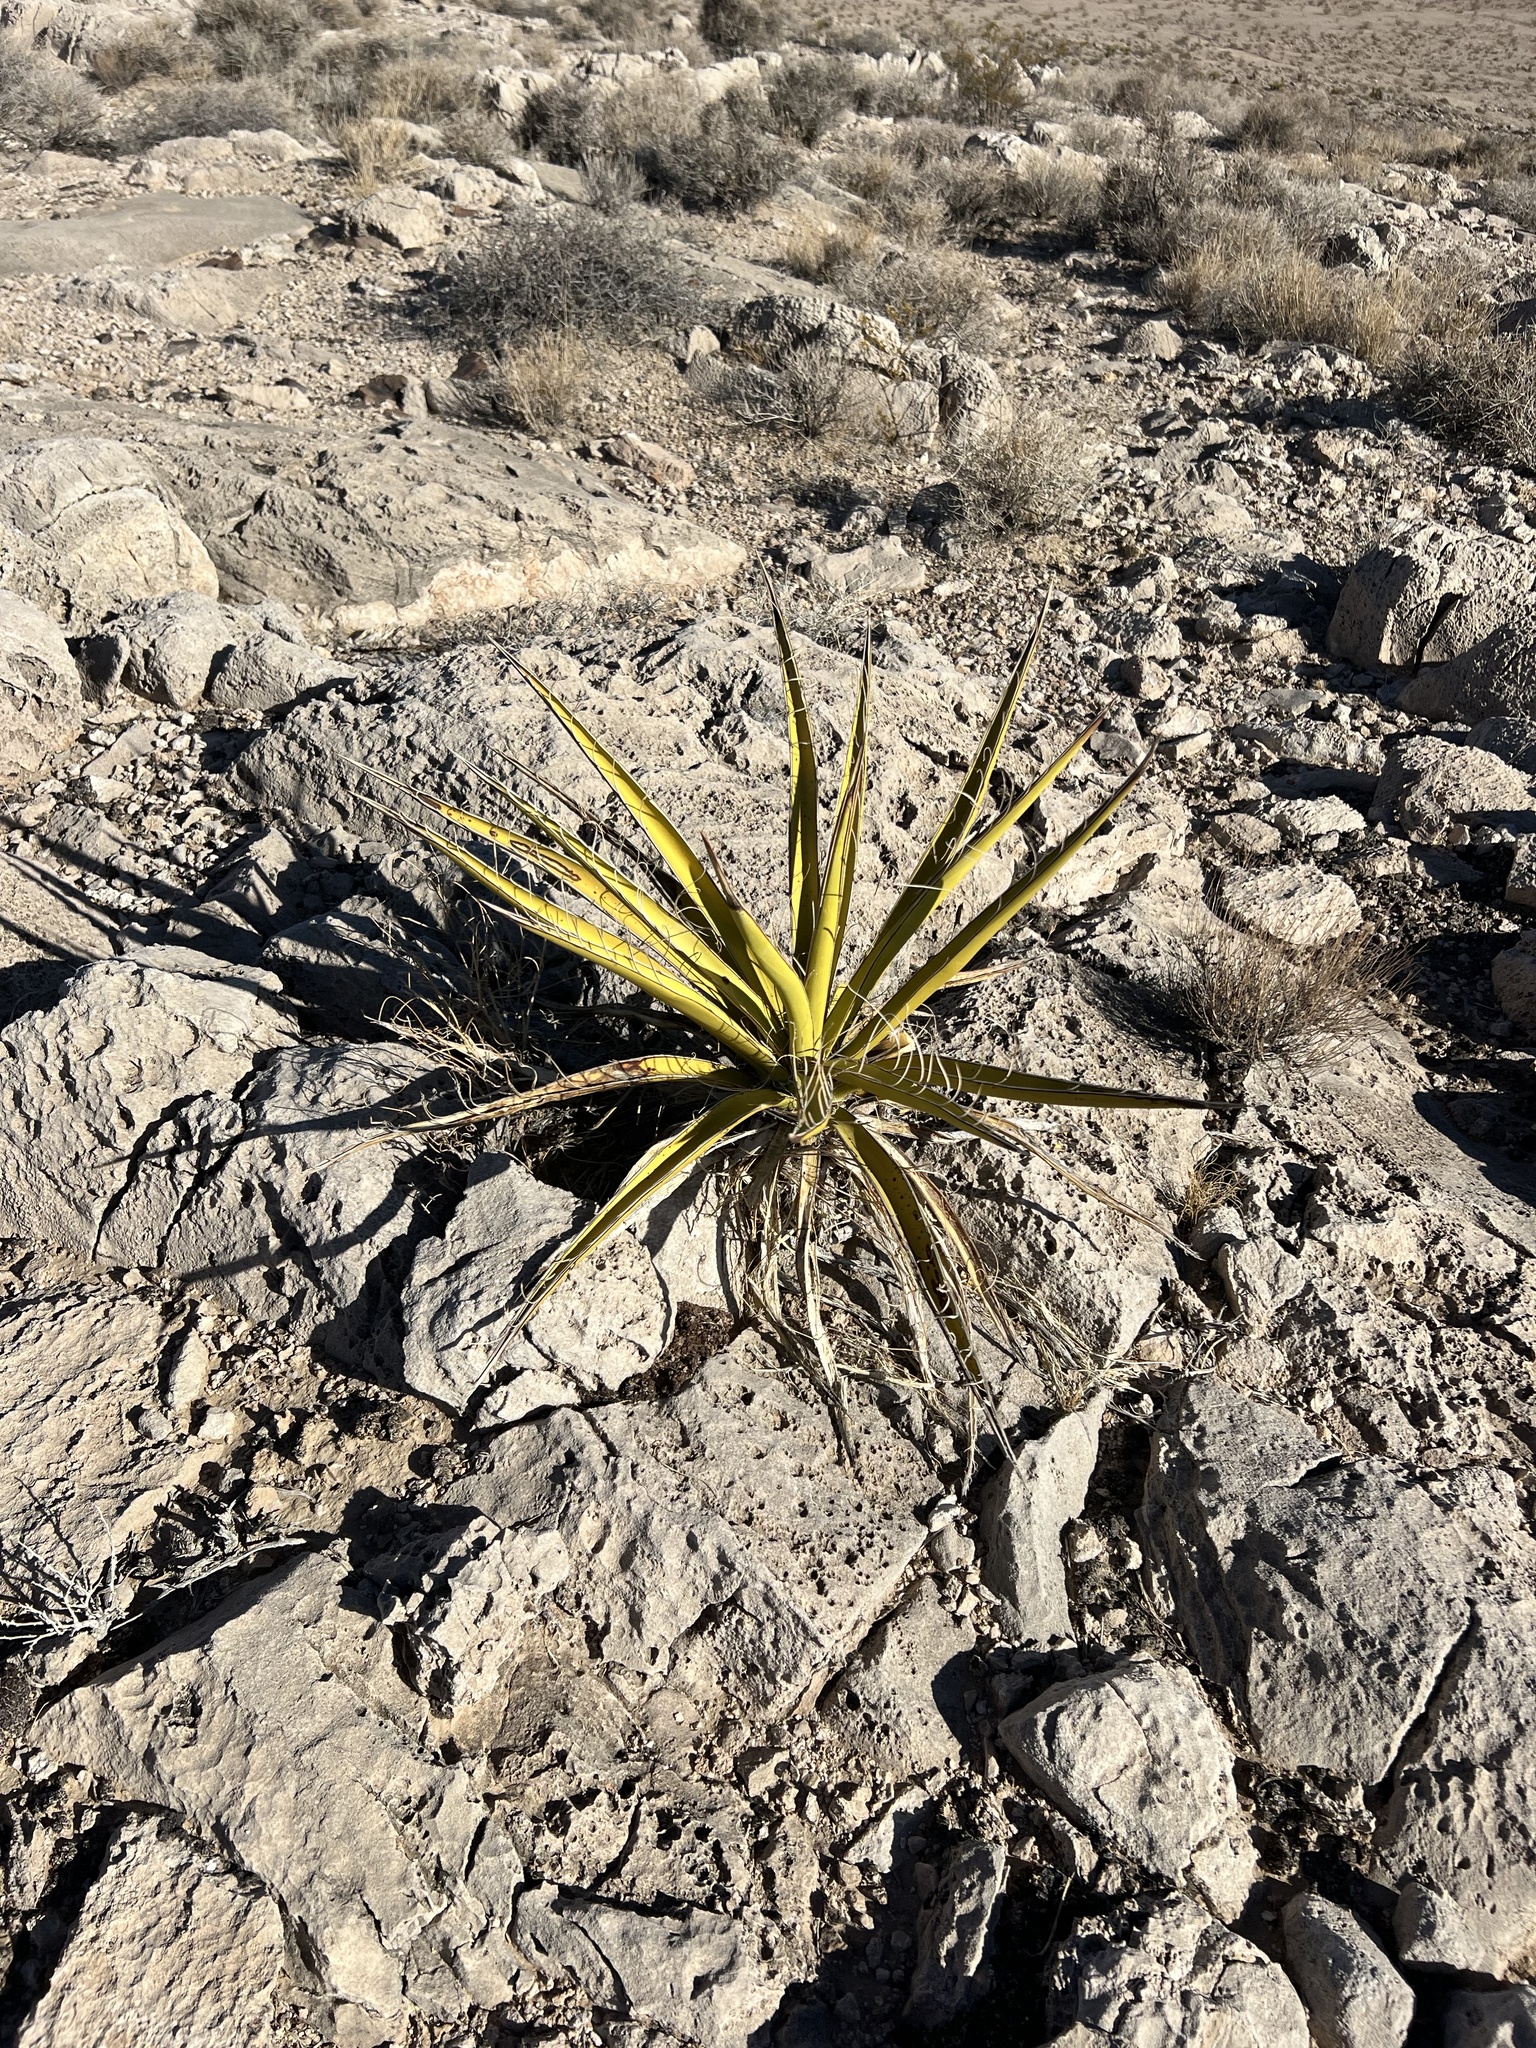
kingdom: Plantae
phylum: Tracheophyta
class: Liliopsida
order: Asparagales
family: Asparagaceae
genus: Yucca
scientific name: Yucca schidigera
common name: Mojave yucca
